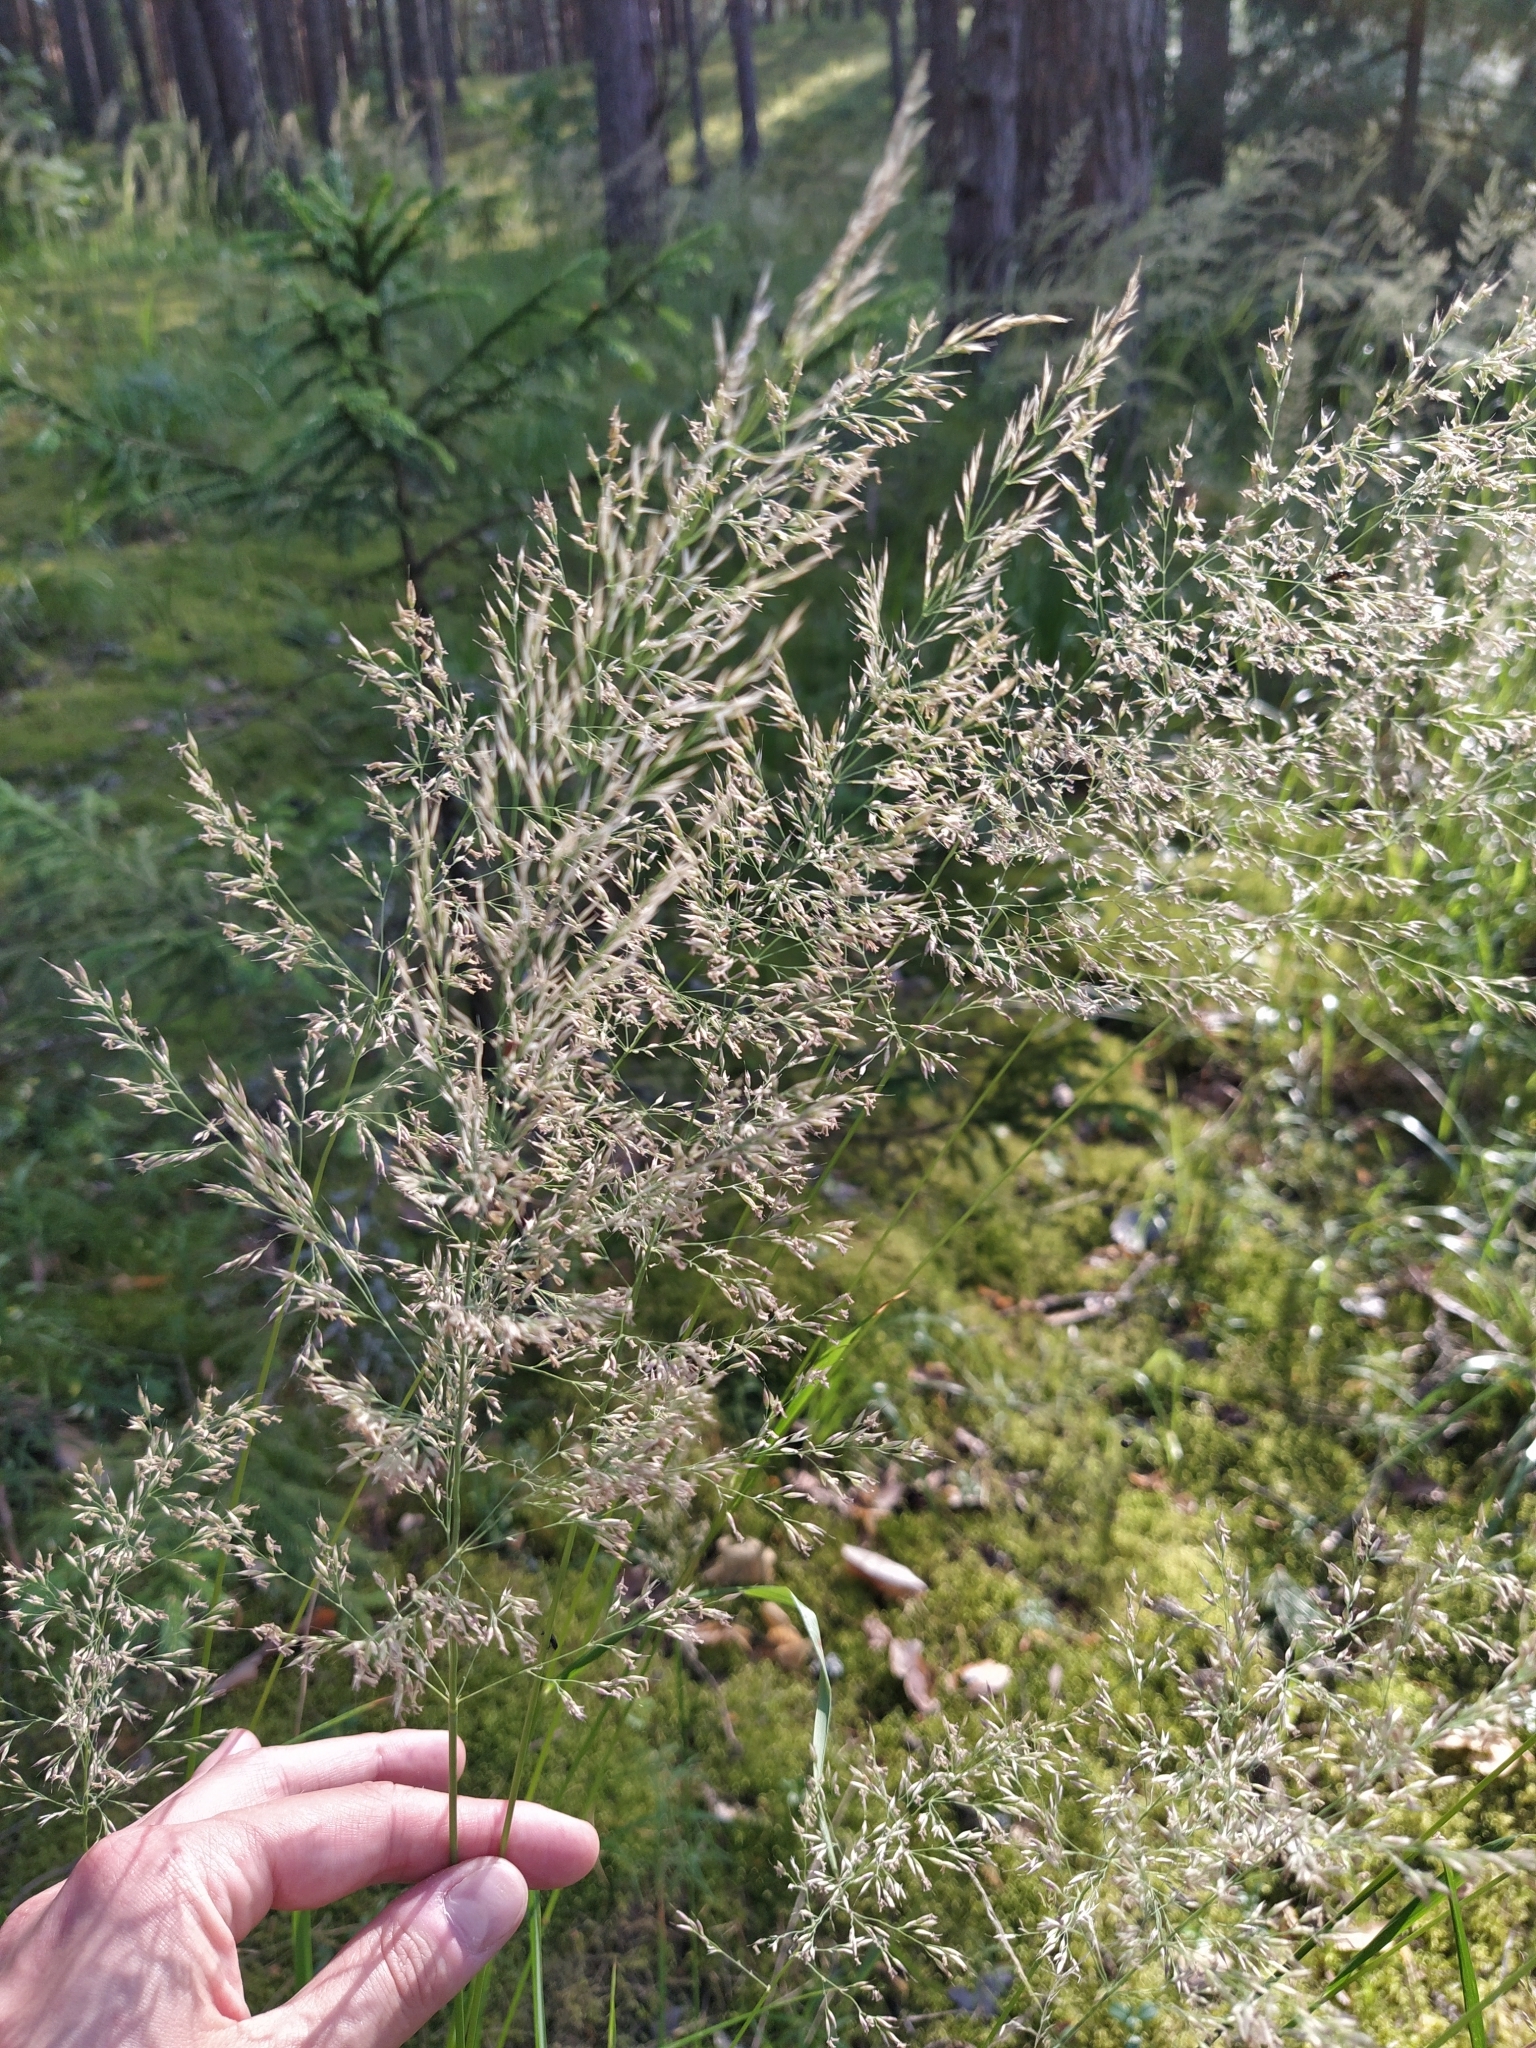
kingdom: Plantae
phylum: Tracheophyta
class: Liliopsida
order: Poales
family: Poaceae
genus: Calamagrostis
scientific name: Calamagrostis arundinacea
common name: Metskastik
